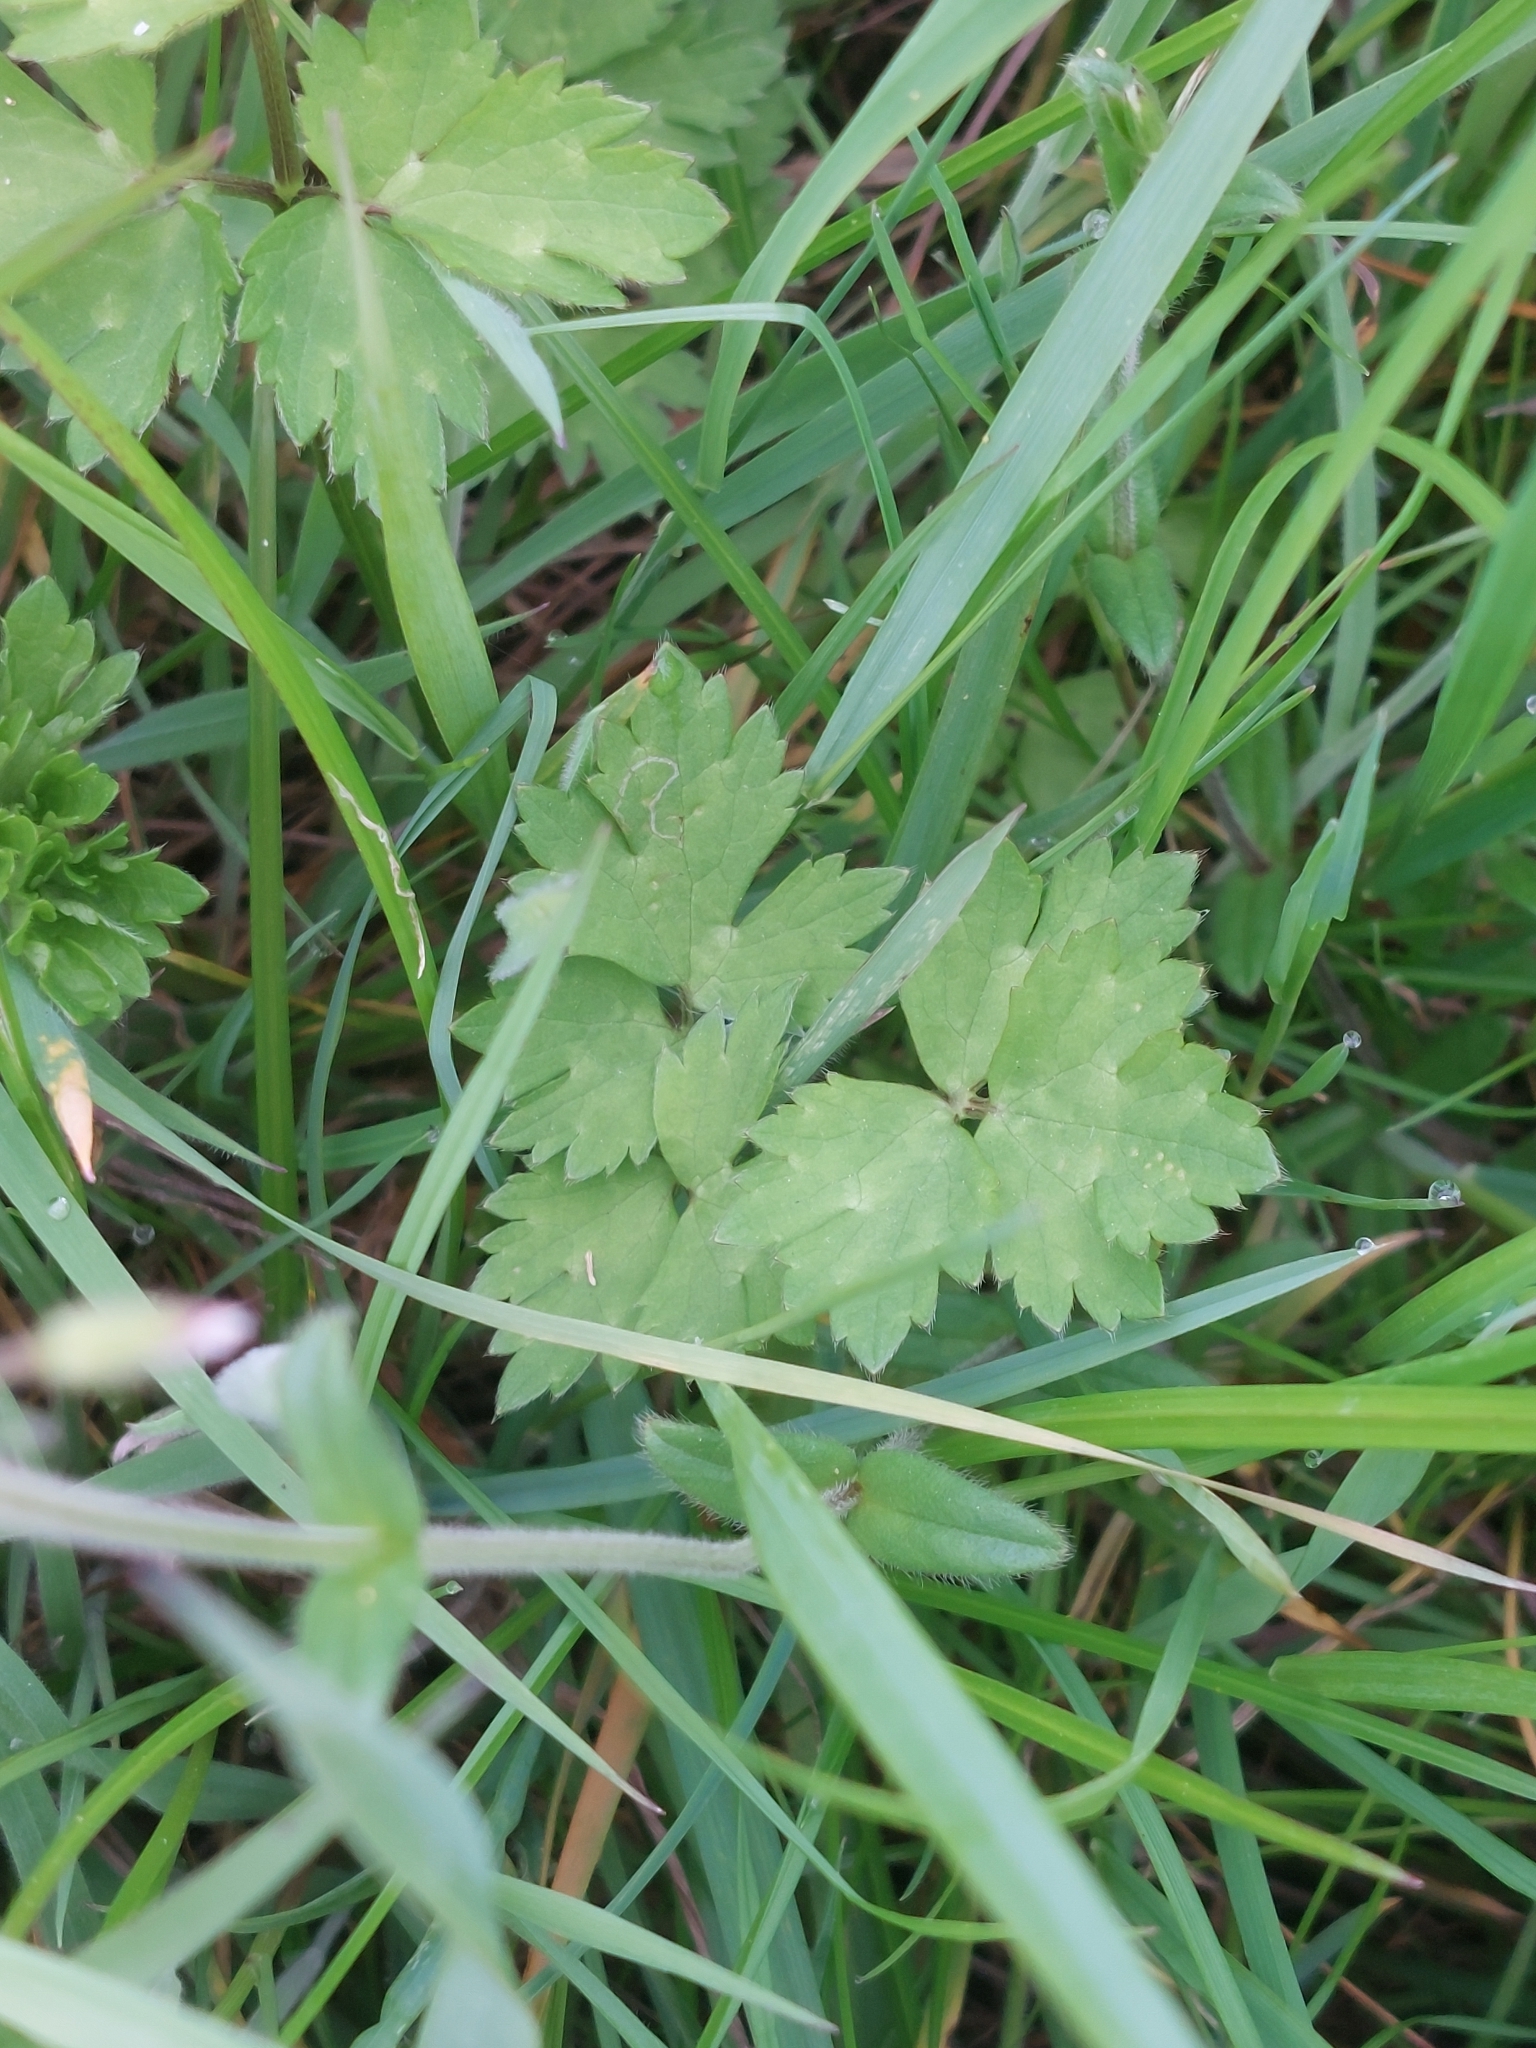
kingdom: Plantae
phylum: Tracheophyta
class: Magnoliopsida
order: Ranunculales
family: Ranunculaceae
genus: Ranunculus
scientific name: Ranunculus repens
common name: Creeping buttercup
